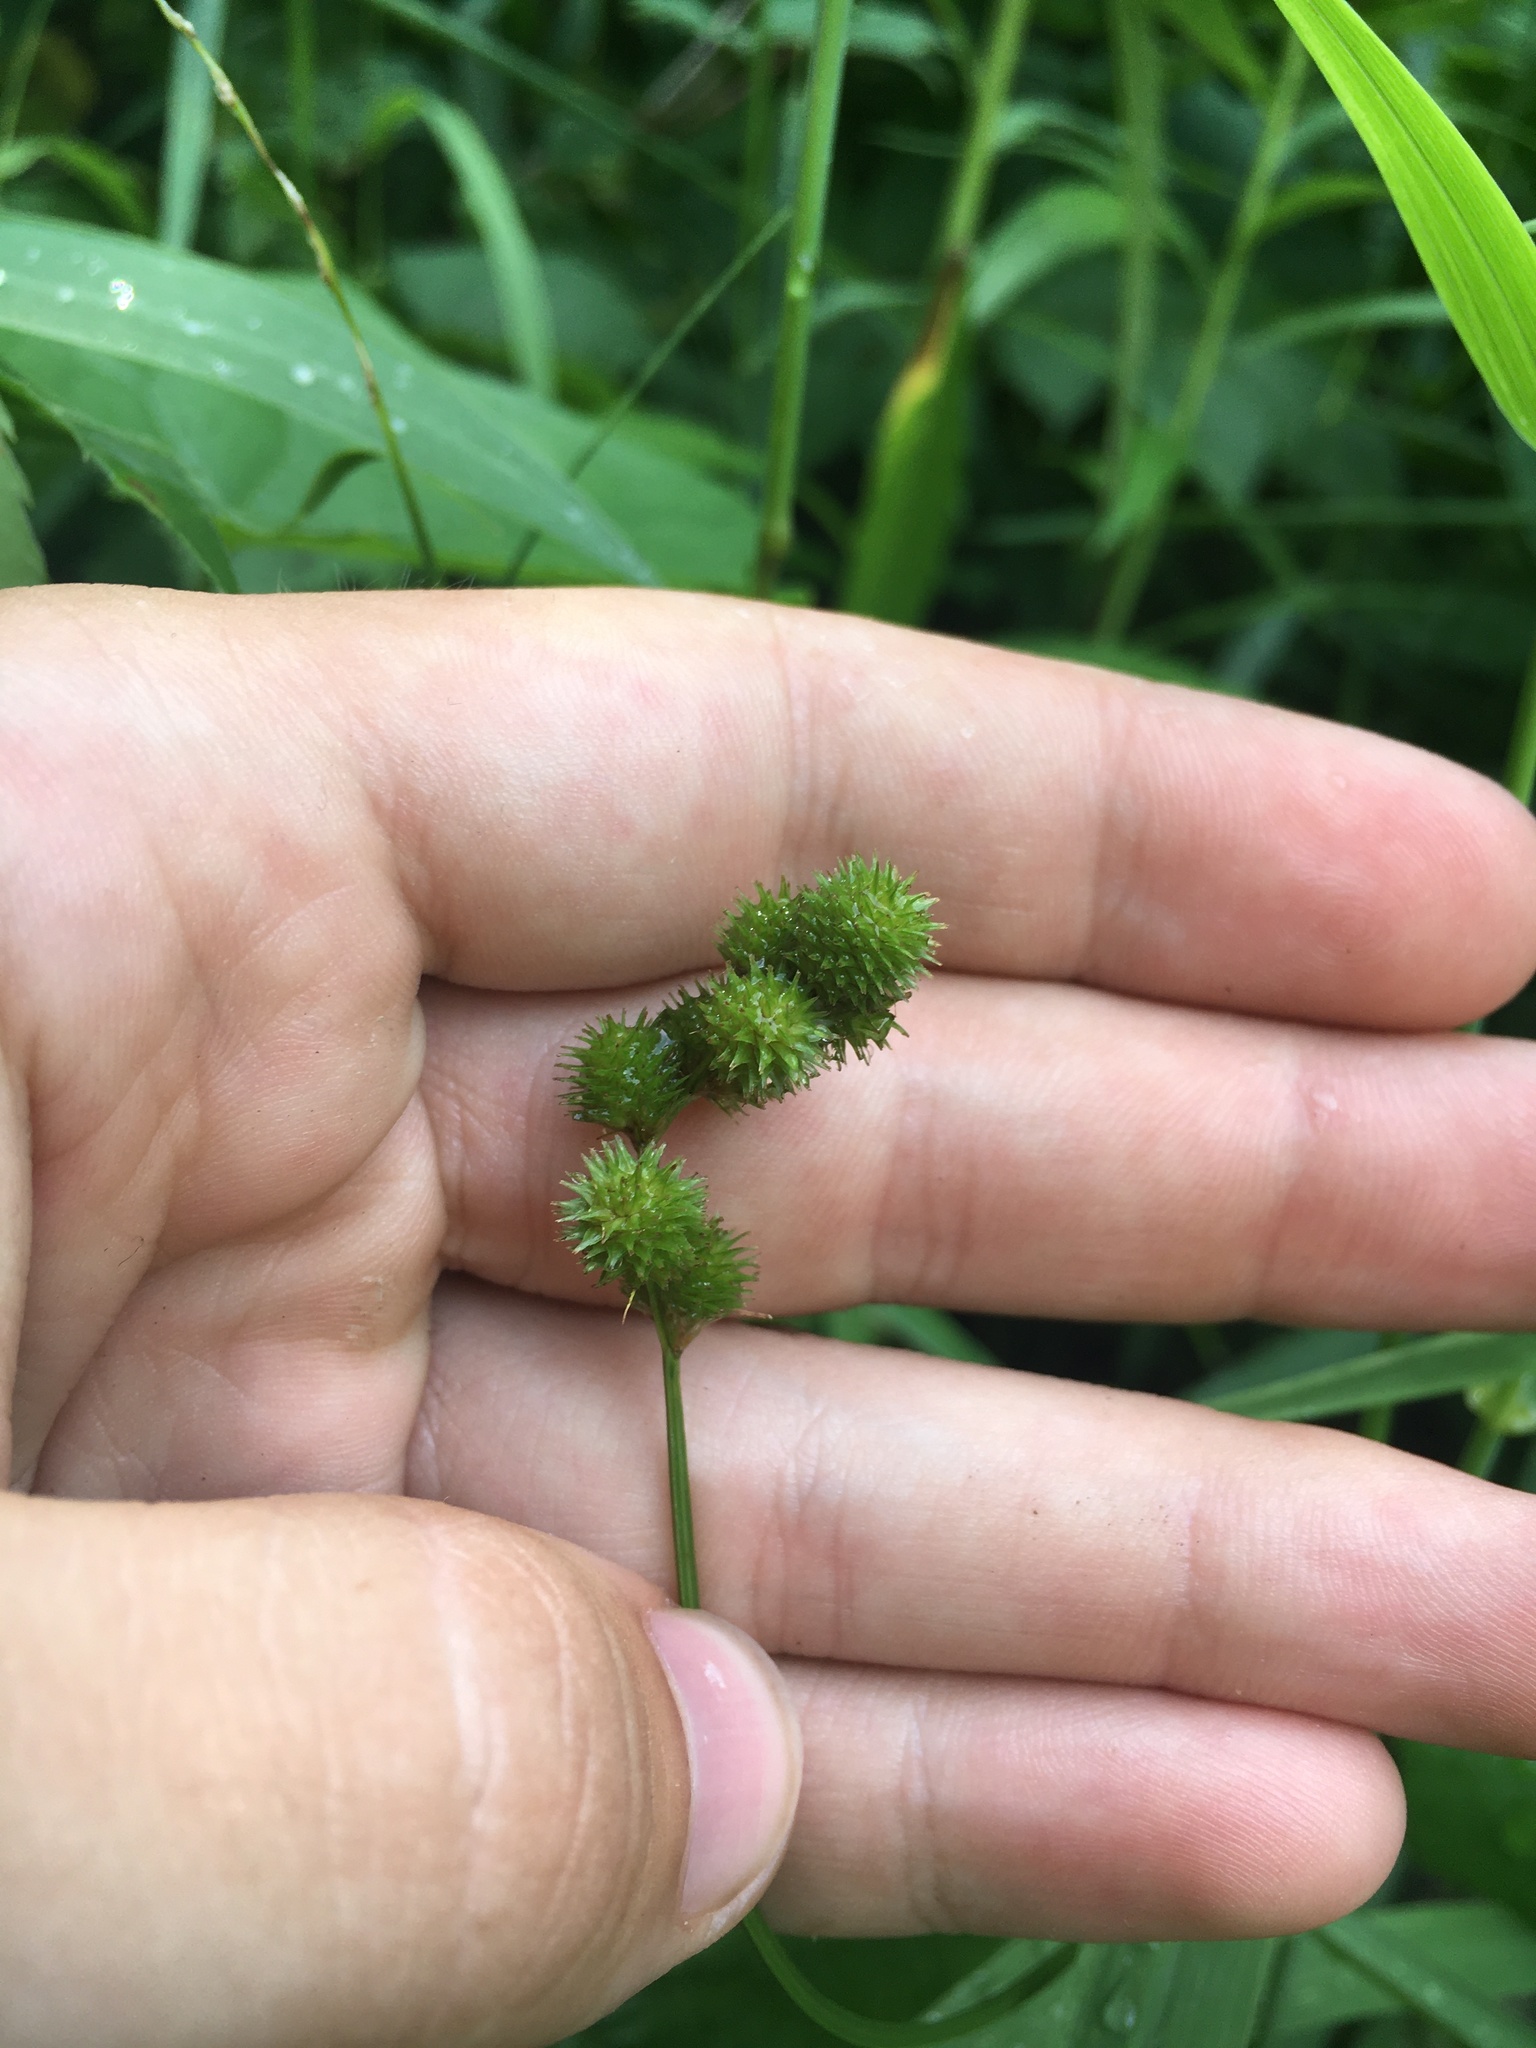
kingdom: Plantae
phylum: Tracheophyta
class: Liliopsida
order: Poales
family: Cyperaceae
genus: Carex
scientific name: Carex cristatella
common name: Crested oval sedge
